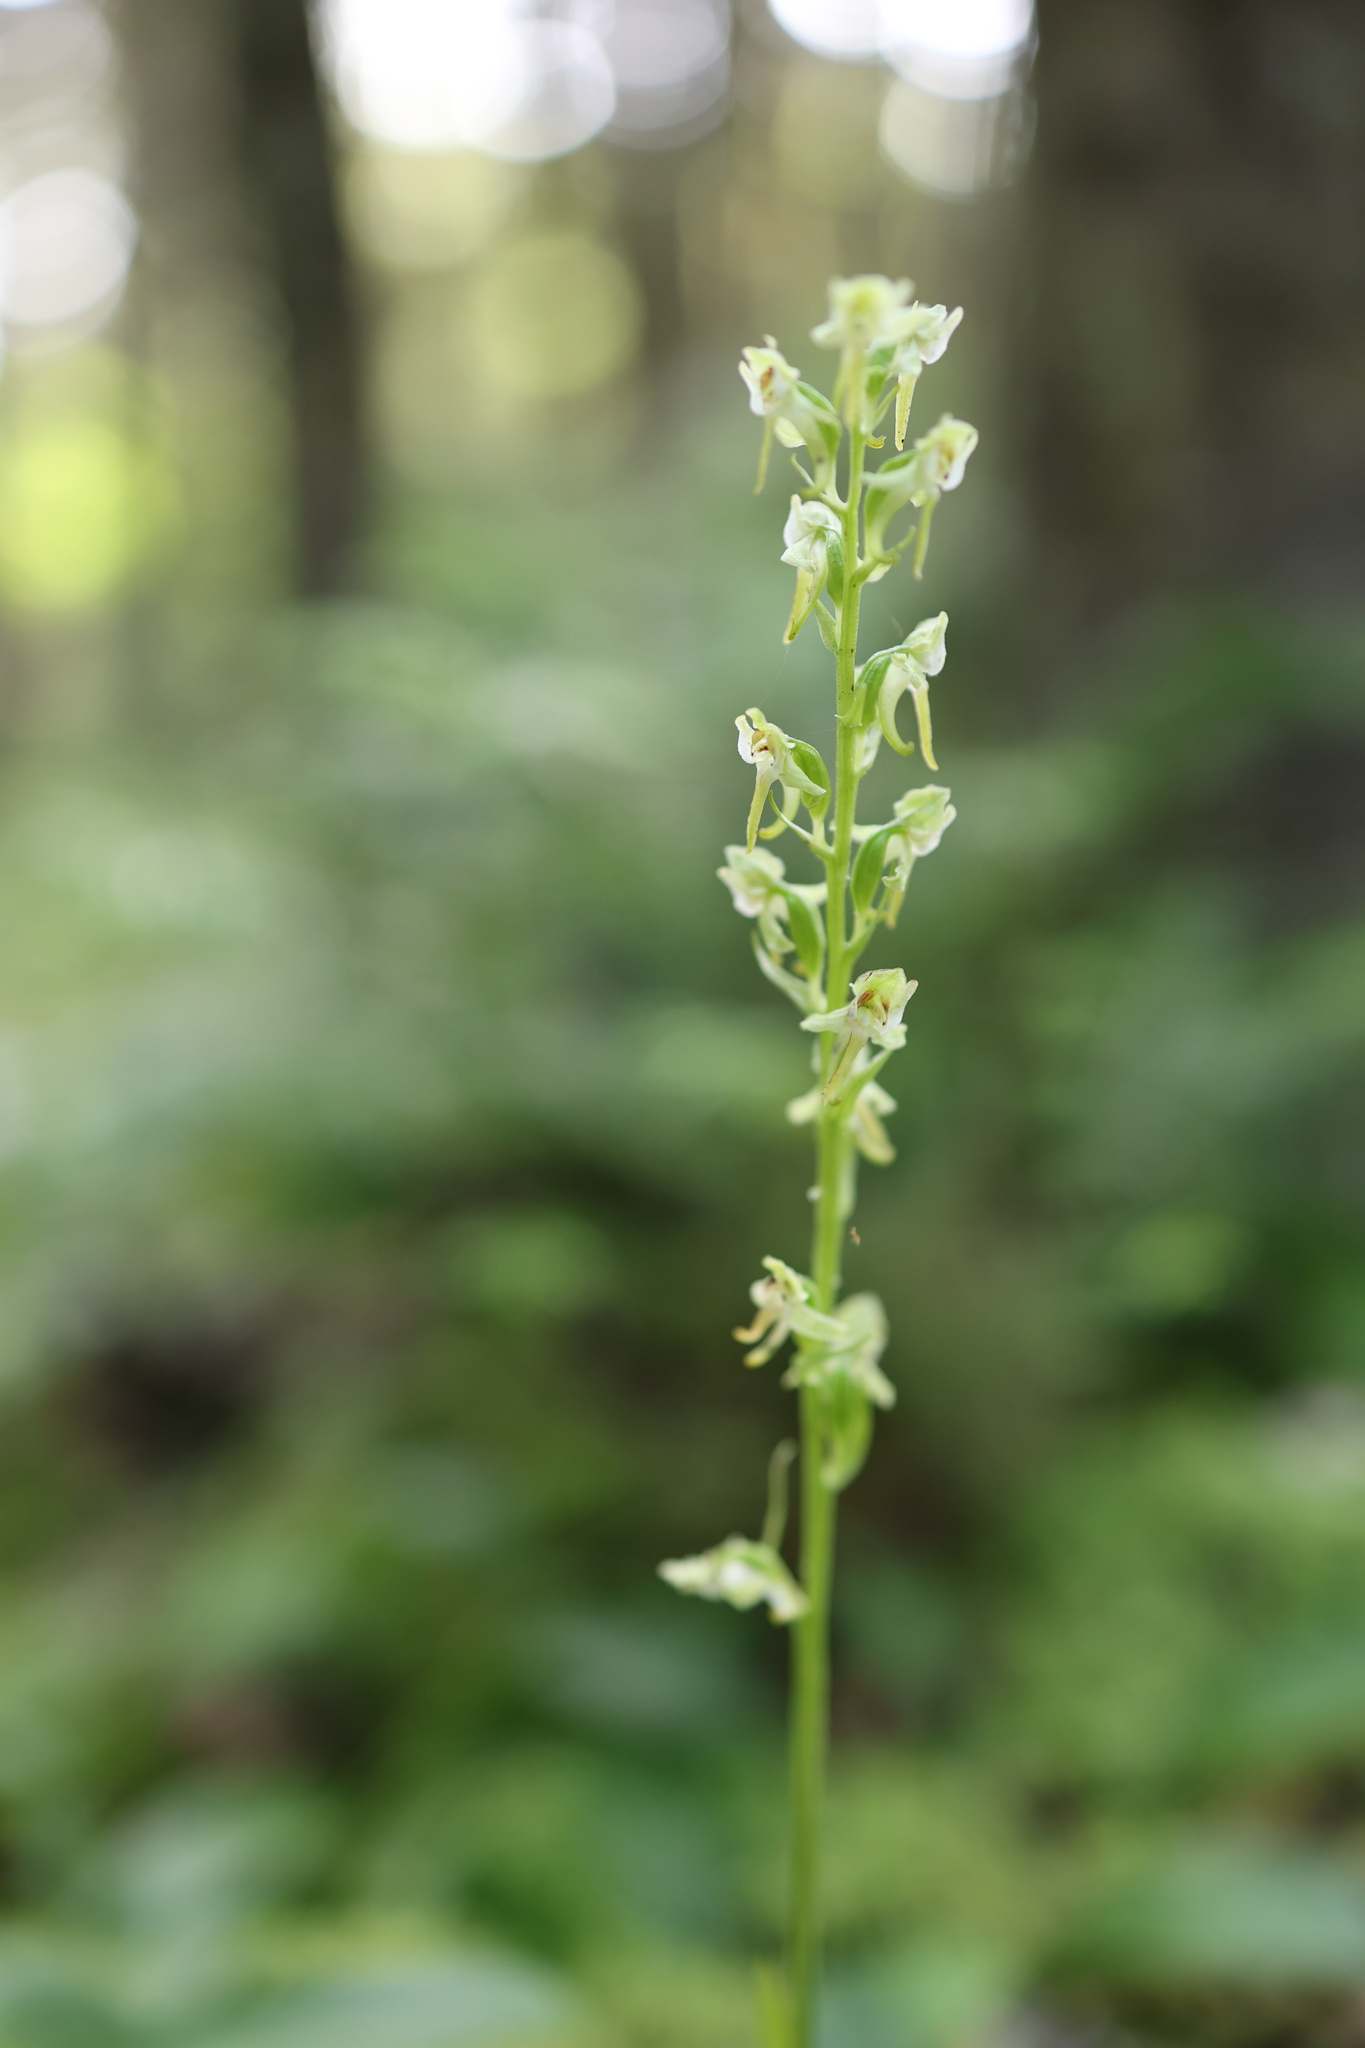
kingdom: Plantae
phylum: Tracheophyta
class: Liliopsida
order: Asparagales
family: Orchidaceae
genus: Platanthera
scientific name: Platanthera obtusata
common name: Blunt bog orchid
